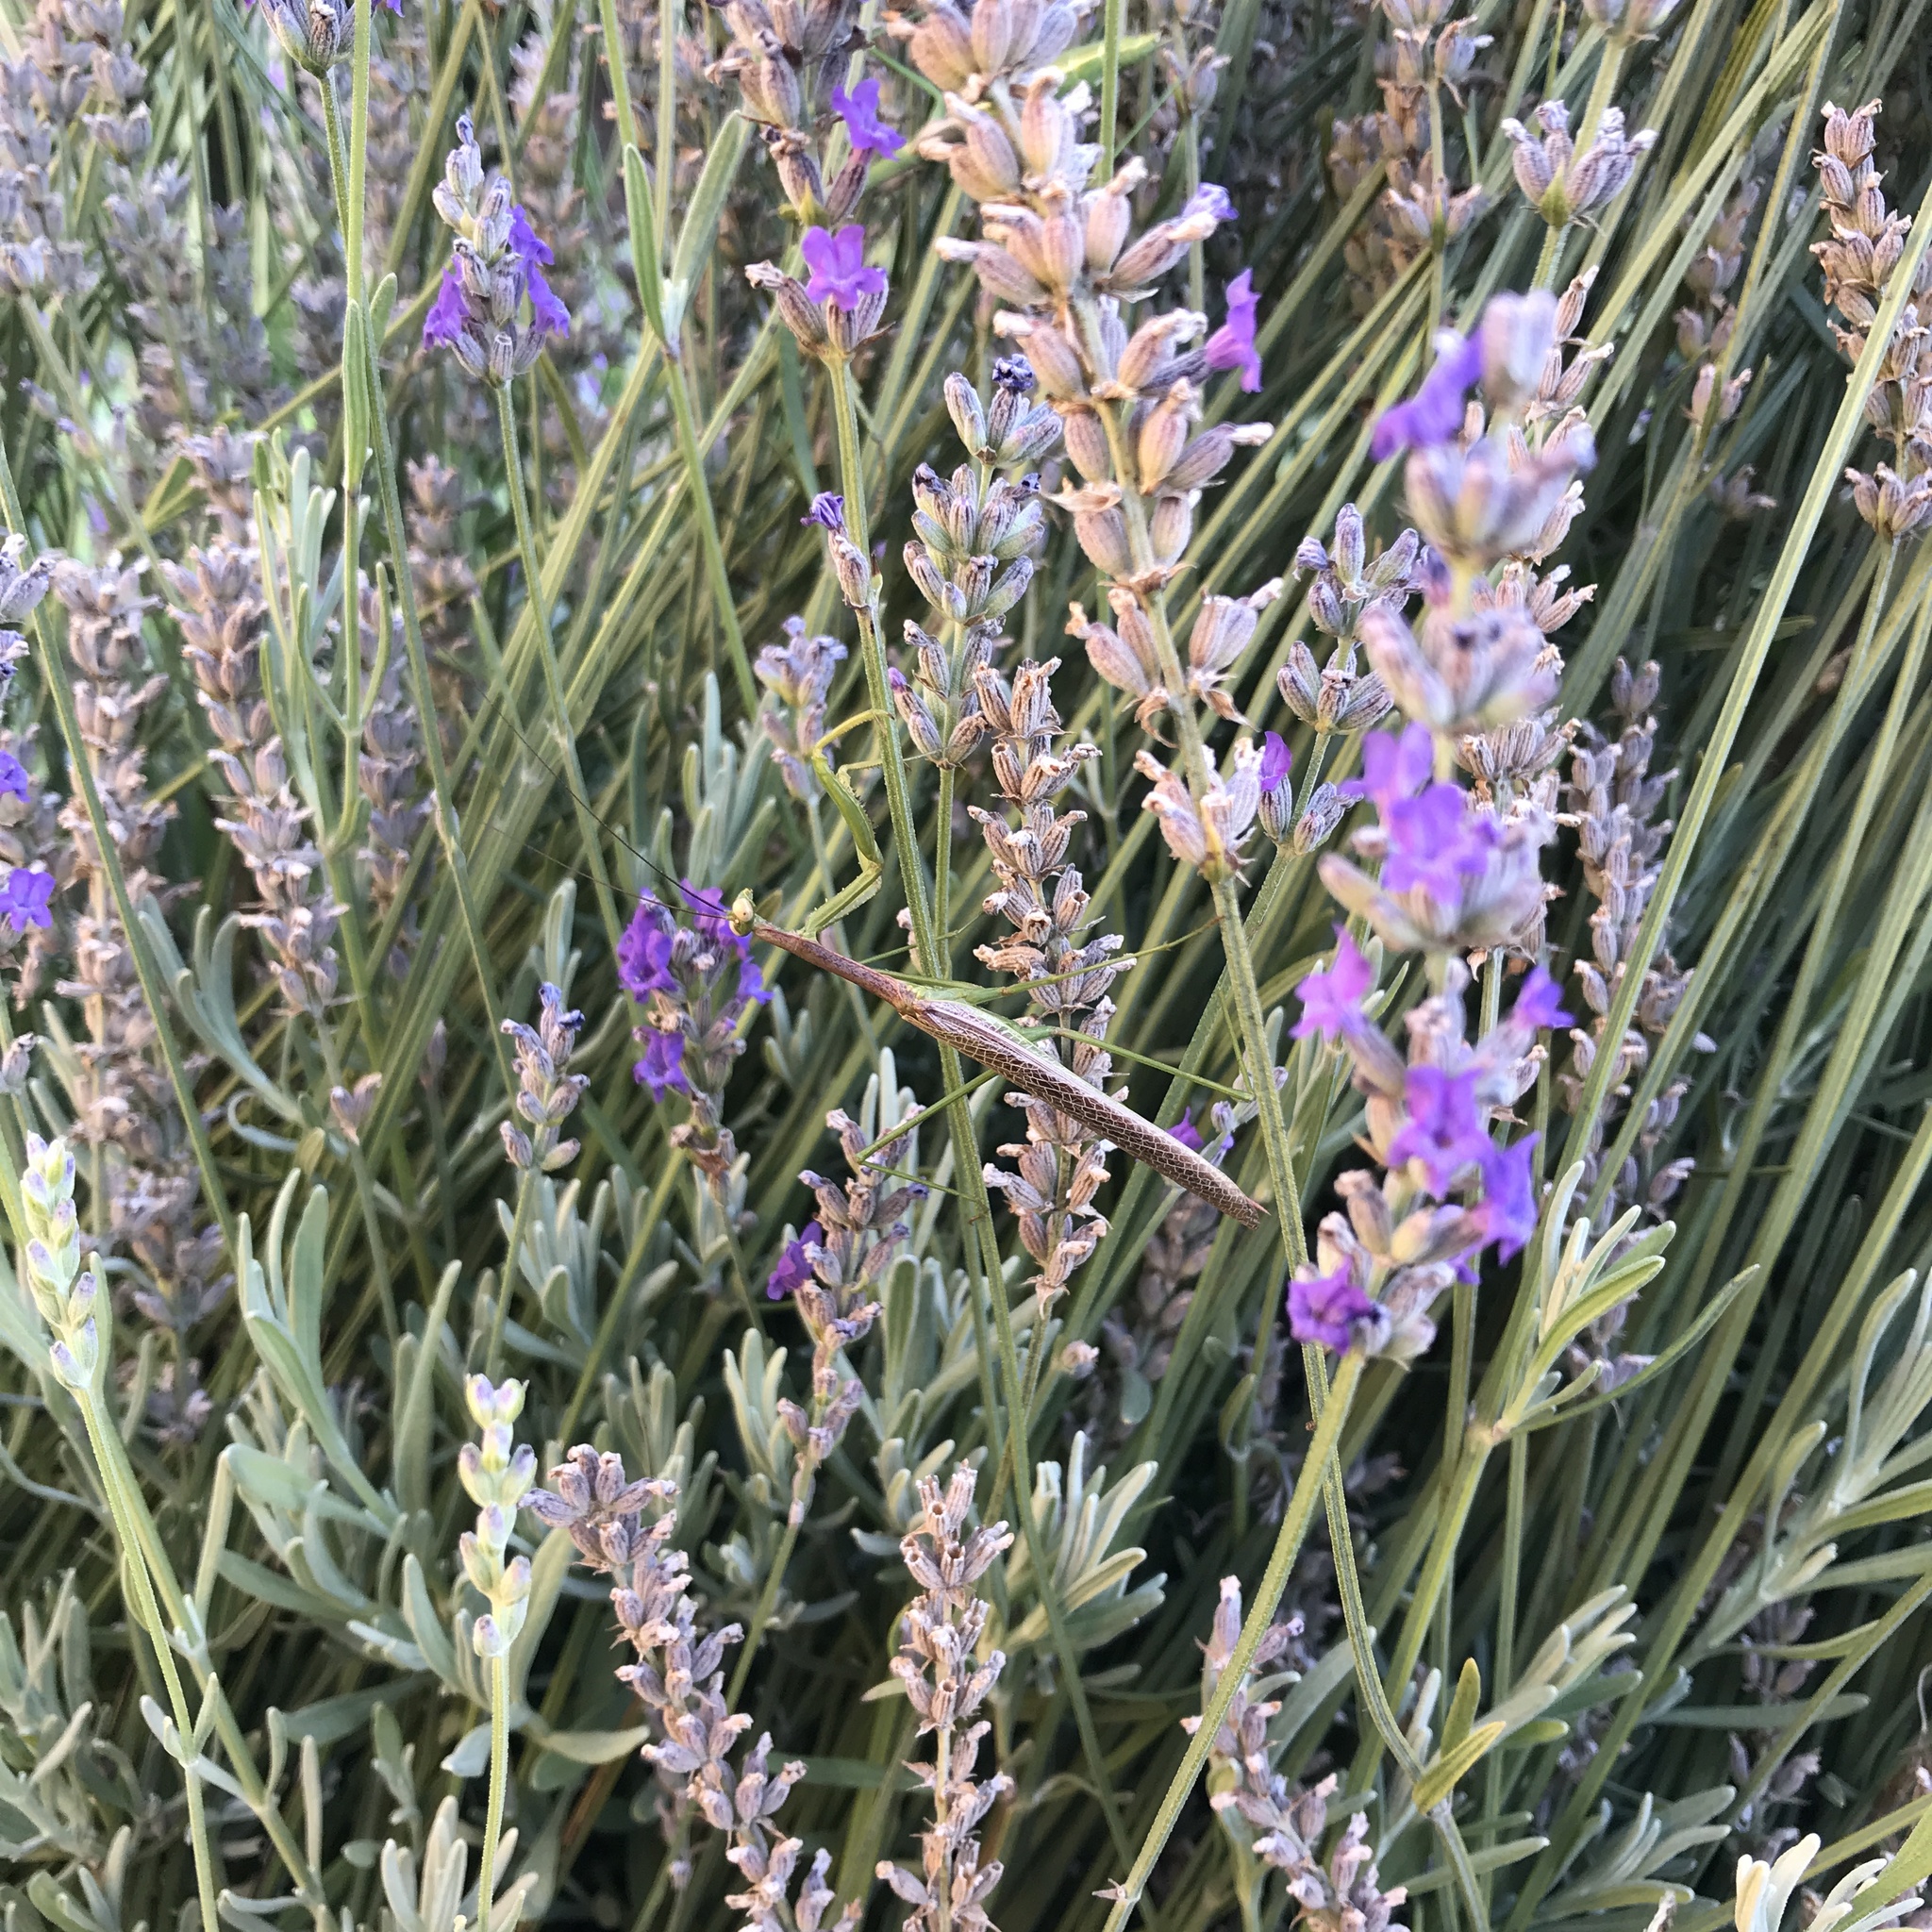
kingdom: Animalia
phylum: Arthropoda
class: Insecta
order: Mantodea
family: Coptopterygidae
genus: Coptopteryx
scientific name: Coptopteryx gayi
